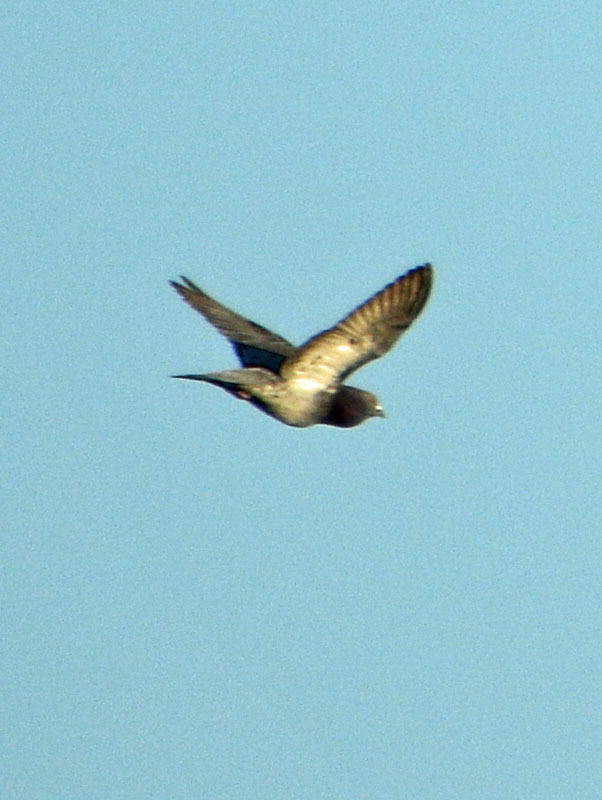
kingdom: Animalia
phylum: Chordata
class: Aves
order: Columbiformes
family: Columbidae
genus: Columba
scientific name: Columba livia
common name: Rock pigeon
